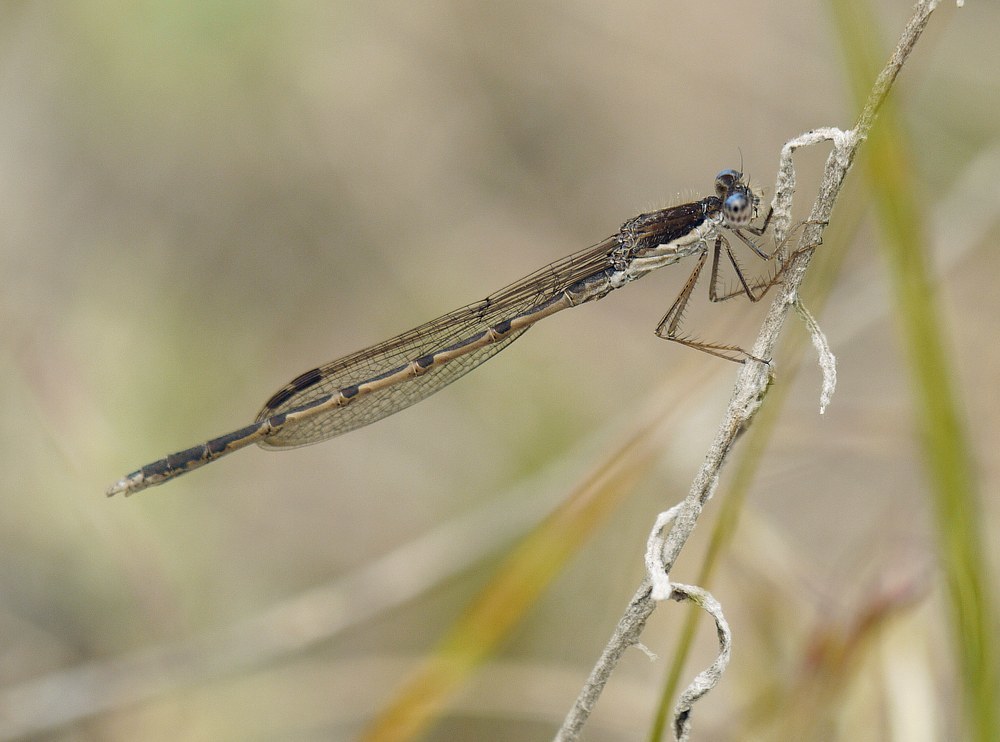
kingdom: Animalia
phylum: Arthropoda
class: Insecta
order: Odonata
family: Lestidae
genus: Sympecma
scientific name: Sympecma fusca
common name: Common winter damsel
